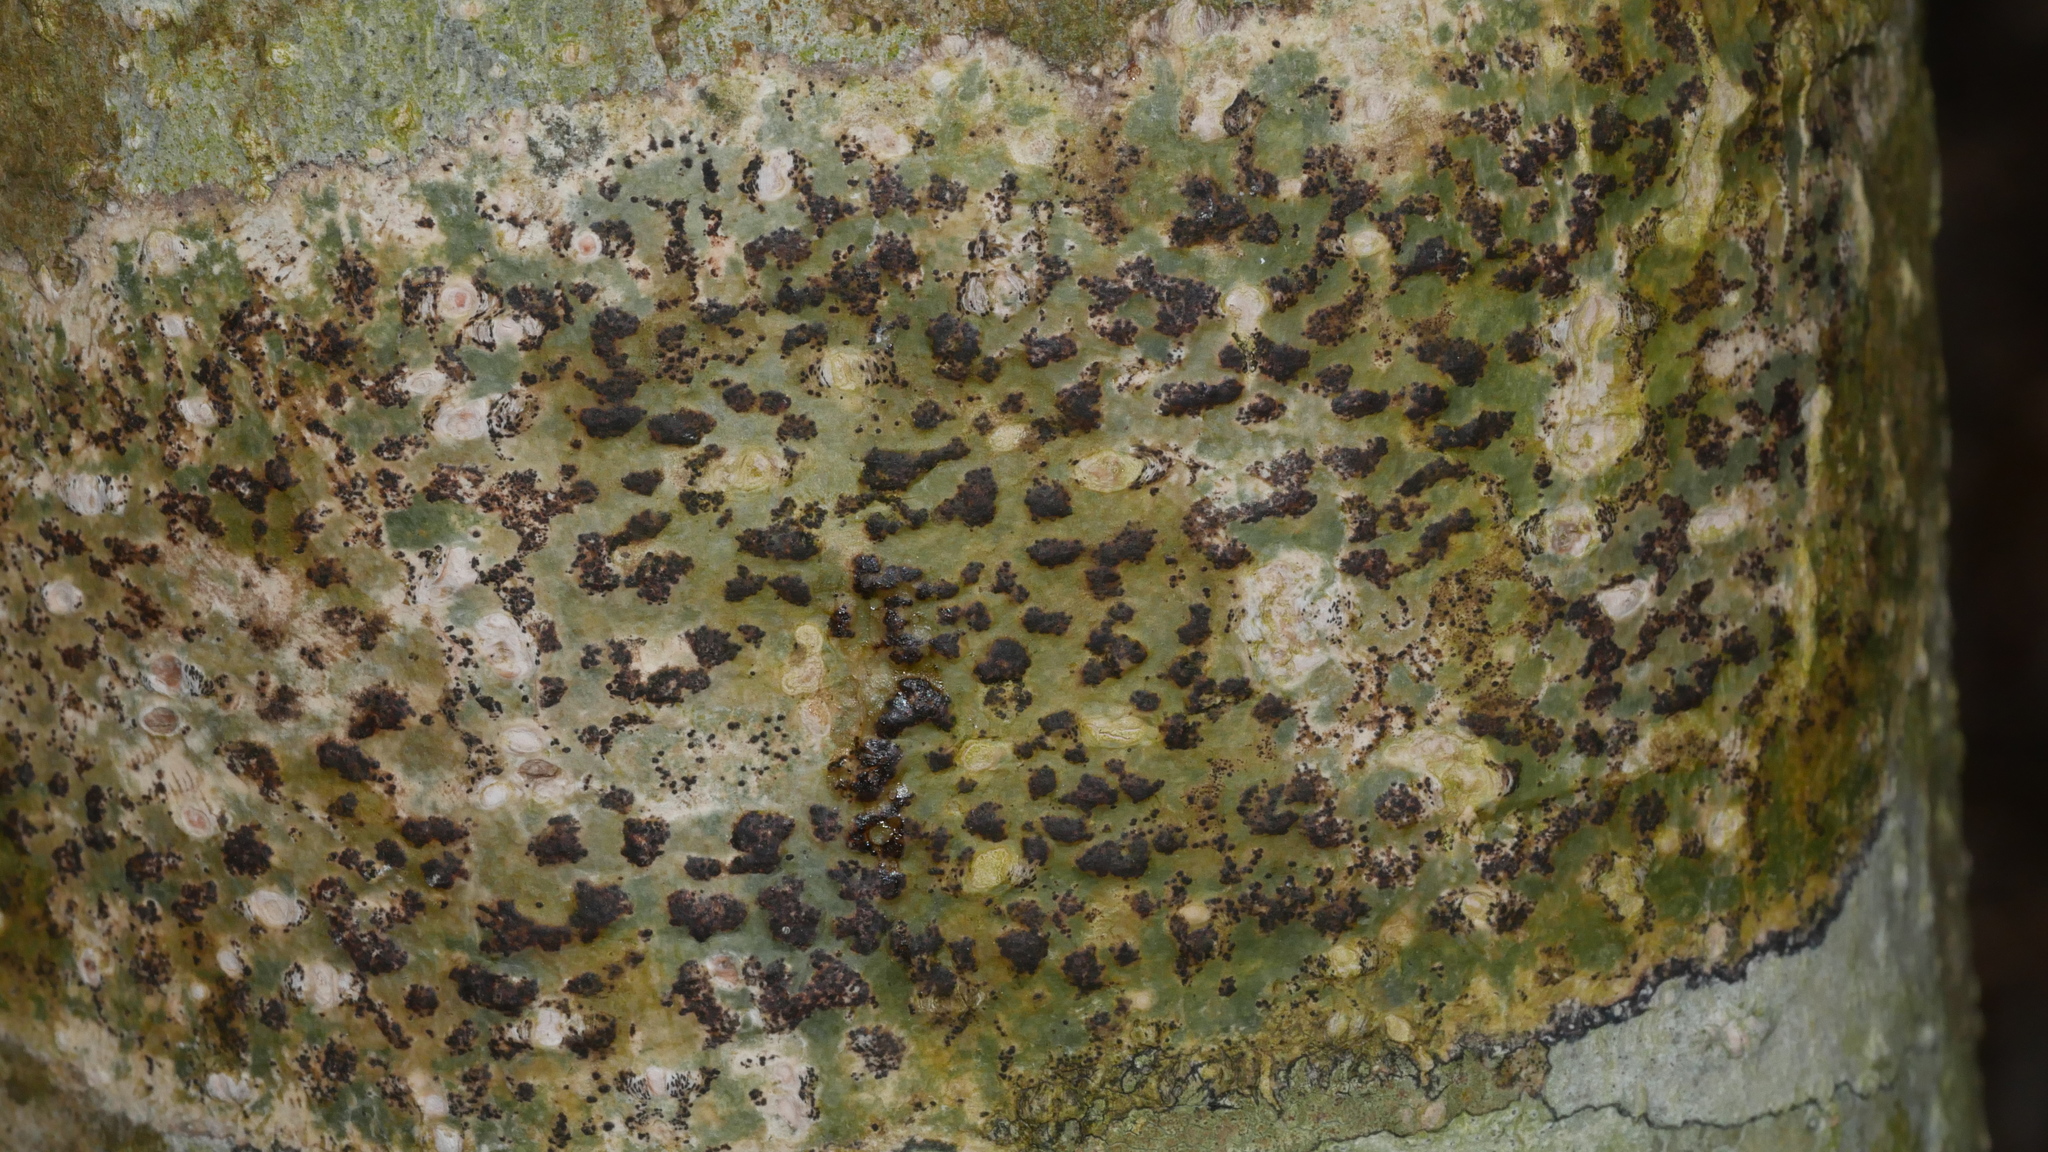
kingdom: Fungi
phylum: Ascomycota
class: Dothideomycetes
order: Trypetheliales
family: Trypetheliaceae
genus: Viridothelium
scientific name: Viridothelium virens
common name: Speckled blister lichen
